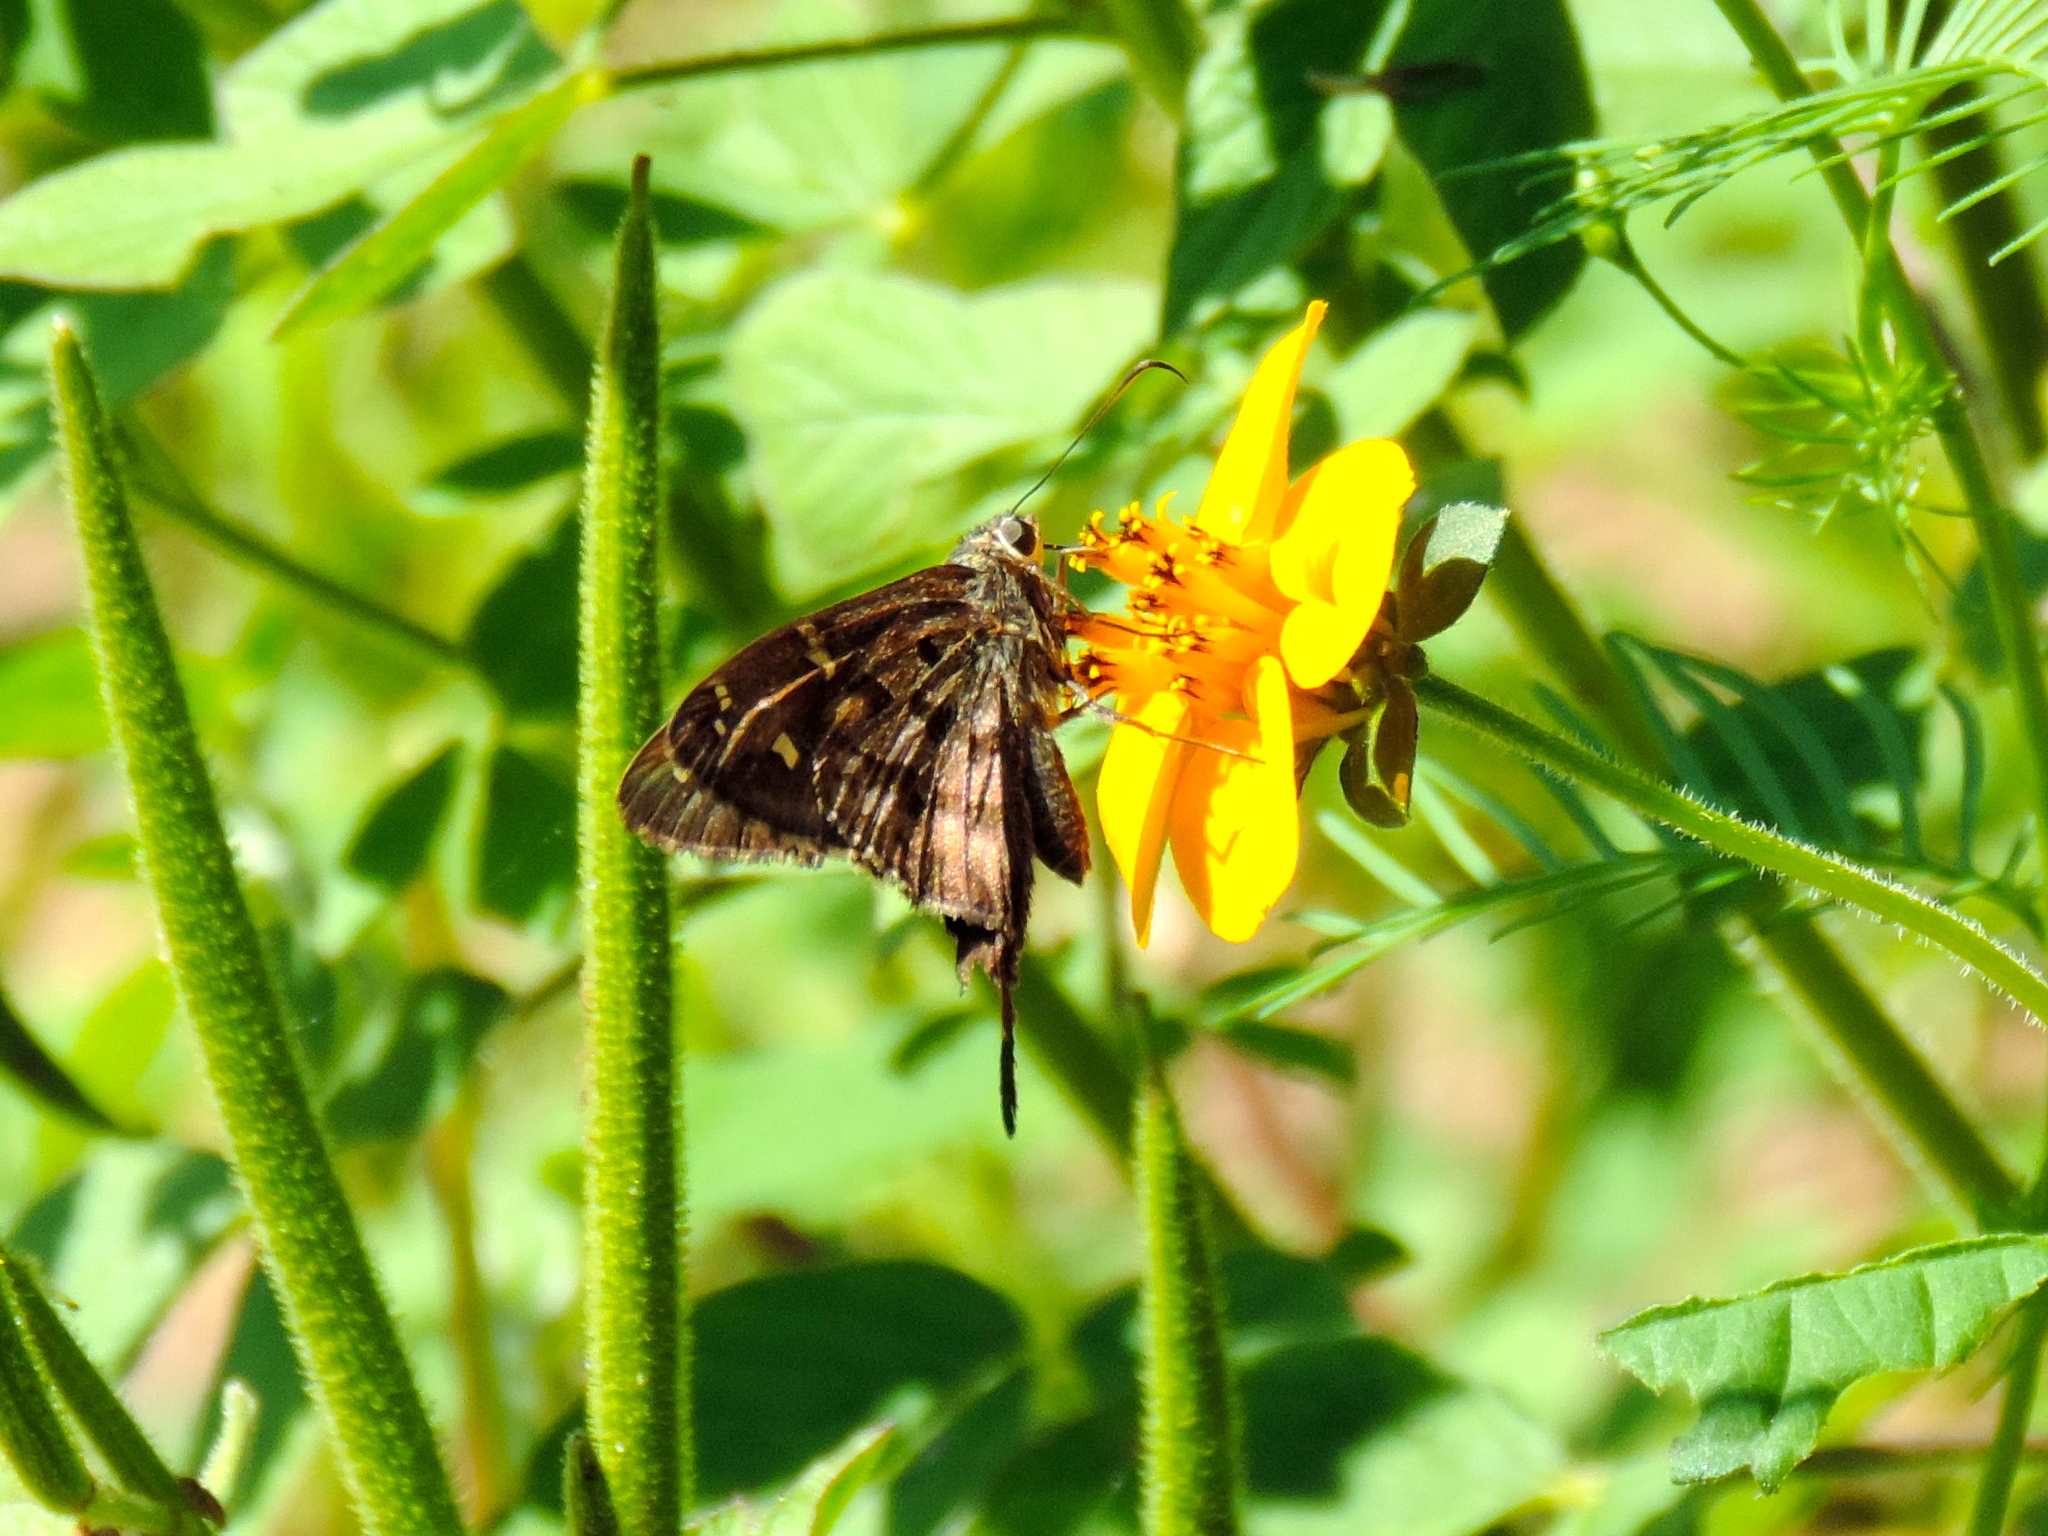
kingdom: Animalia
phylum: Arthropoda
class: Insecta
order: Lepidoptera
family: Hesperiidae
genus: Thorybes
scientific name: Thorybes
